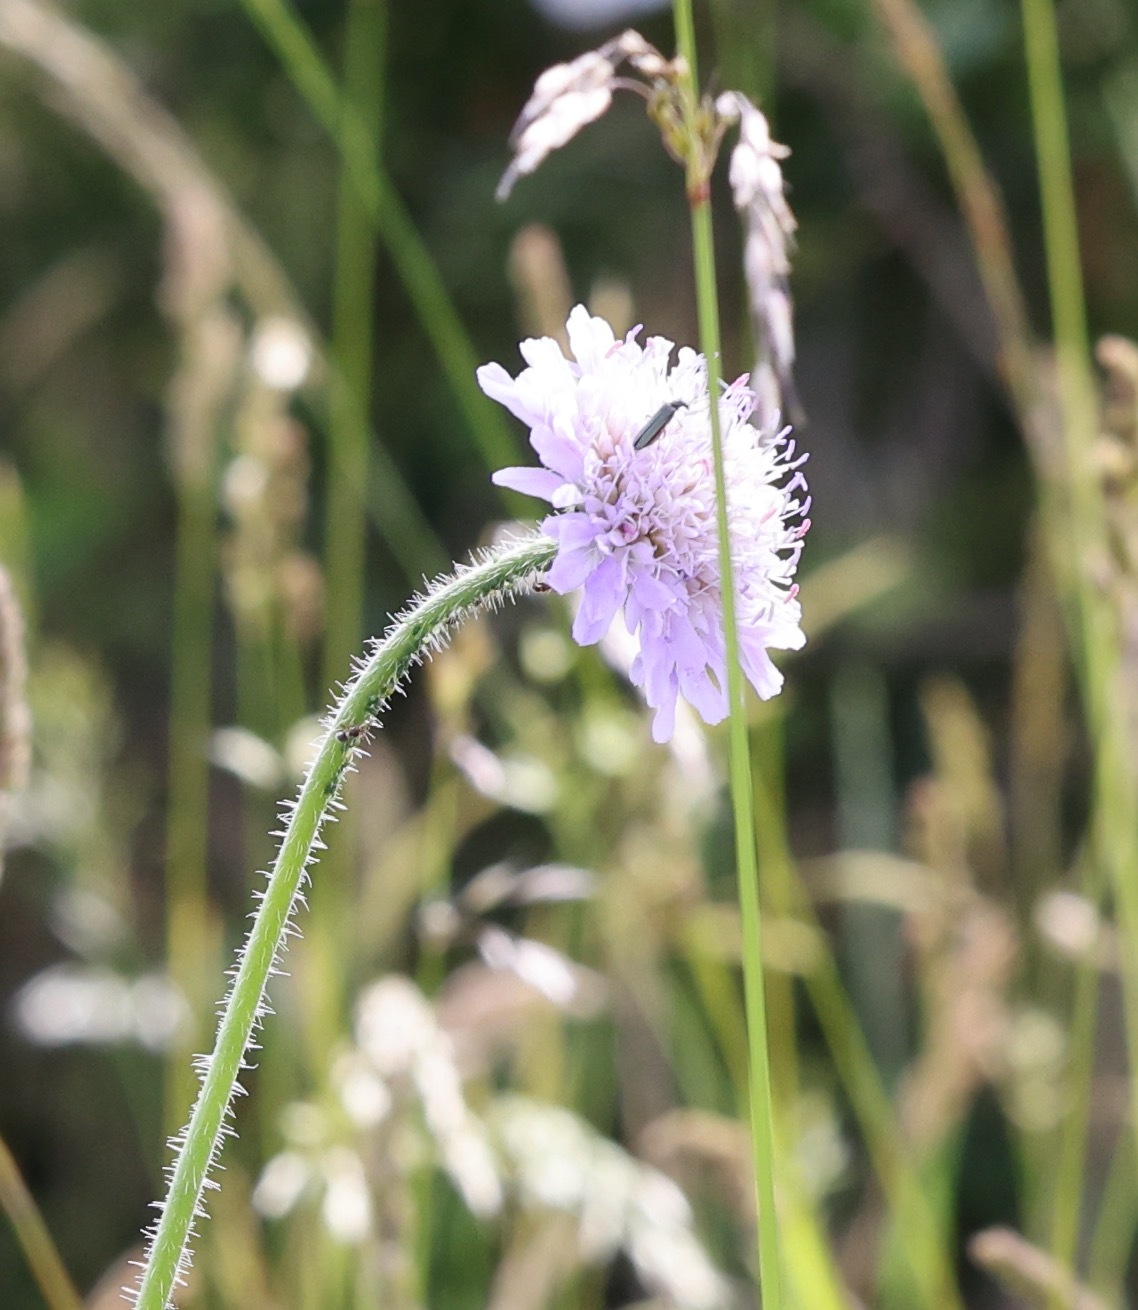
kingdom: Plantae
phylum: Tracheophyta
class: Magnoliopsida
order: Dipsacales
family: Caprifoliaceae
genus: Knautia
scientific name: Knautia arvensis
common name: Field scabiosa
